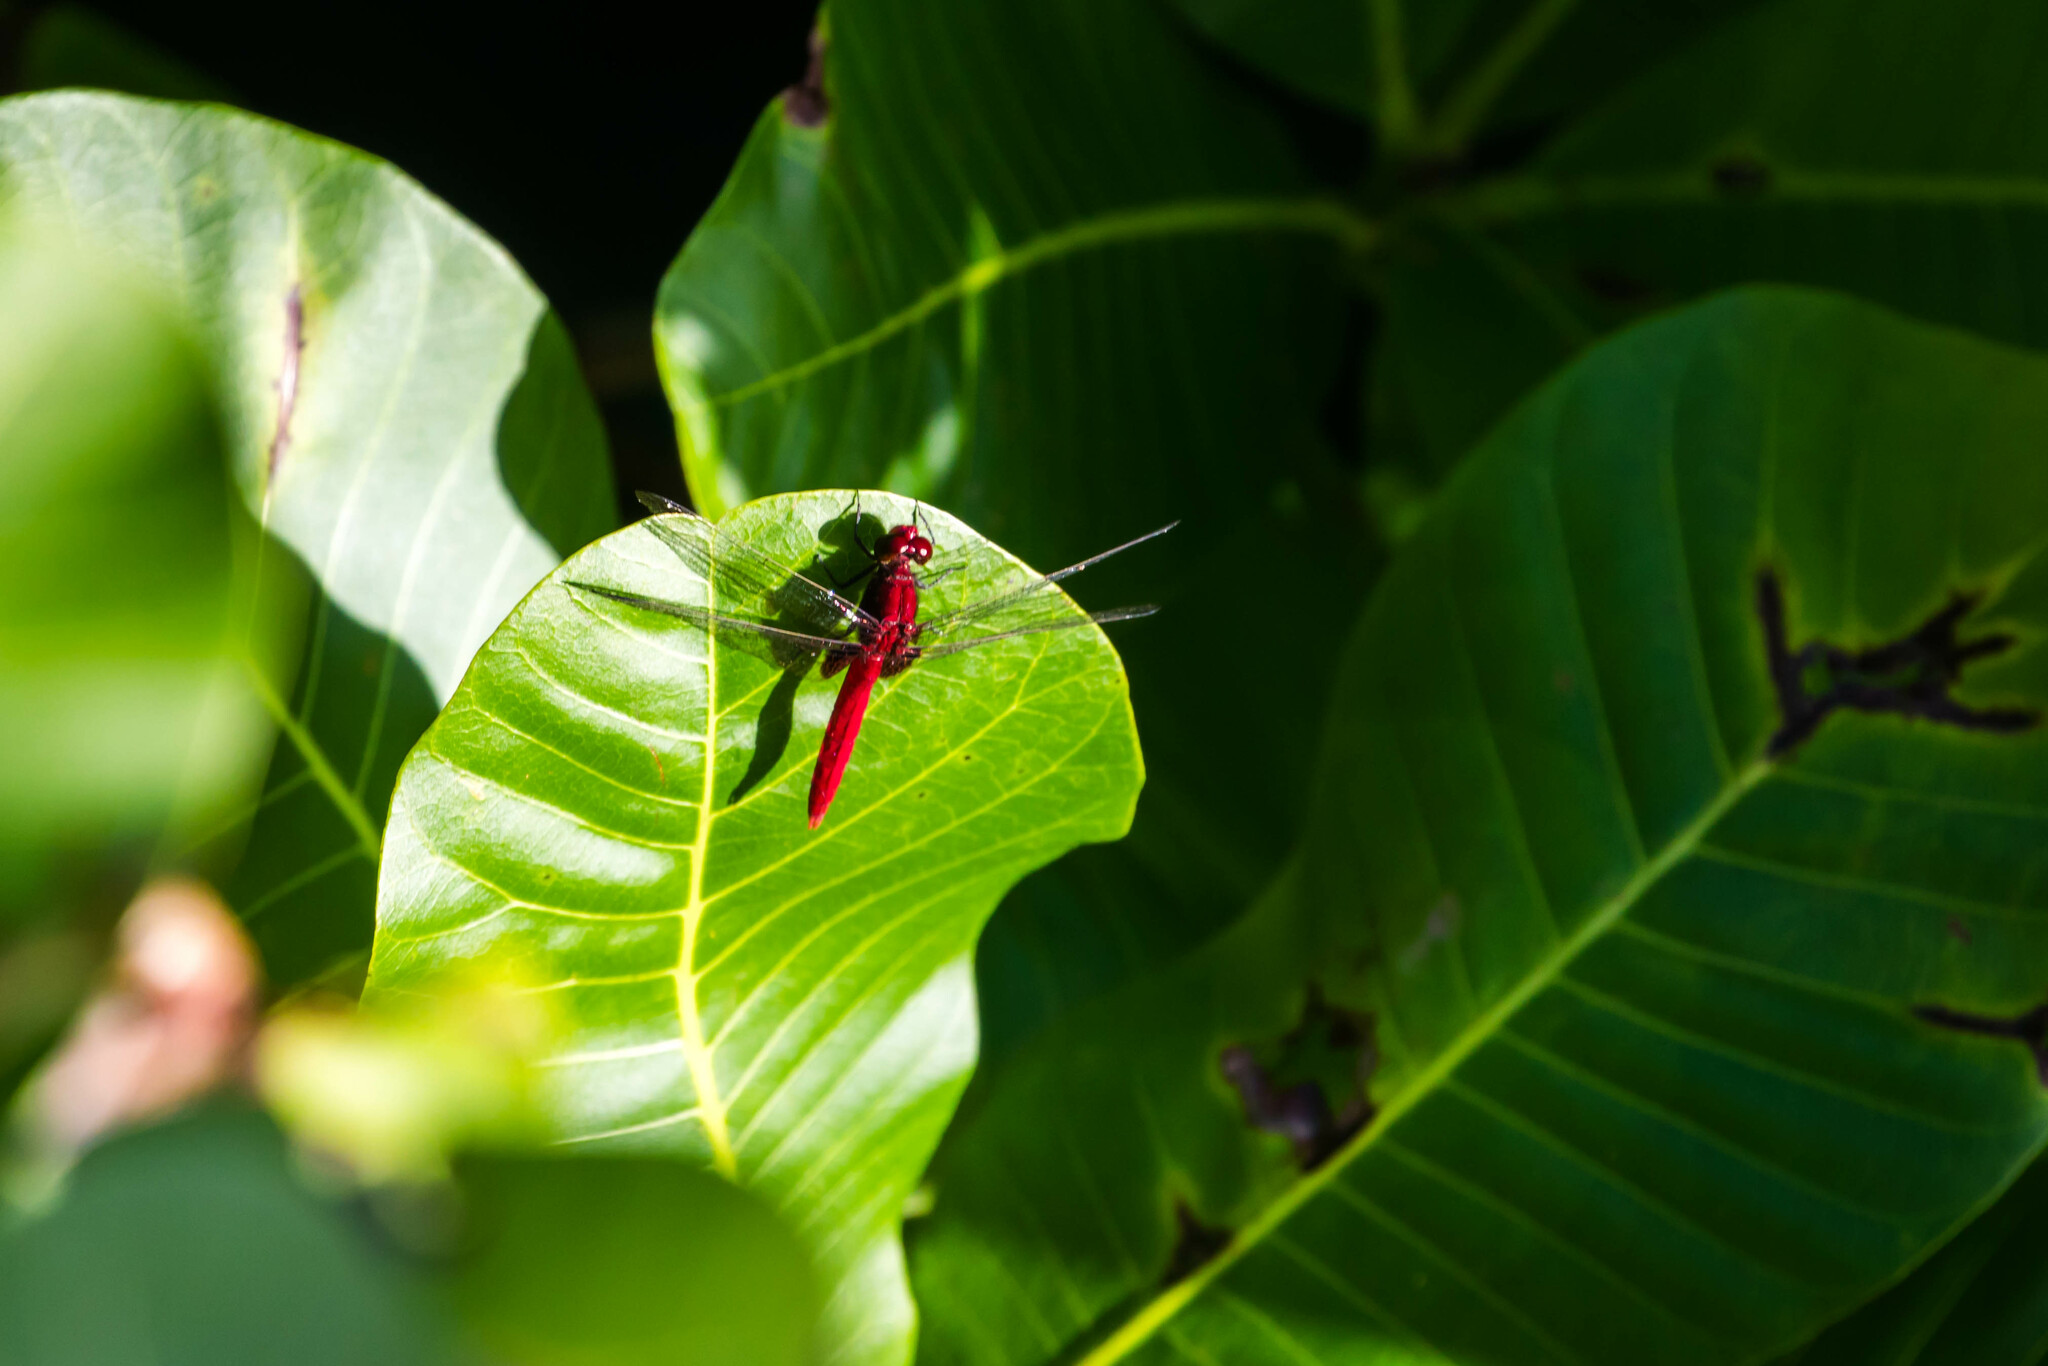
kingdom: Animalia
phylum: Arthropoda
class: Insecta
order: Odonata
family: Libellulidae
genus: Erythrodiplax
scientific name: Erythrodiplax castanea
